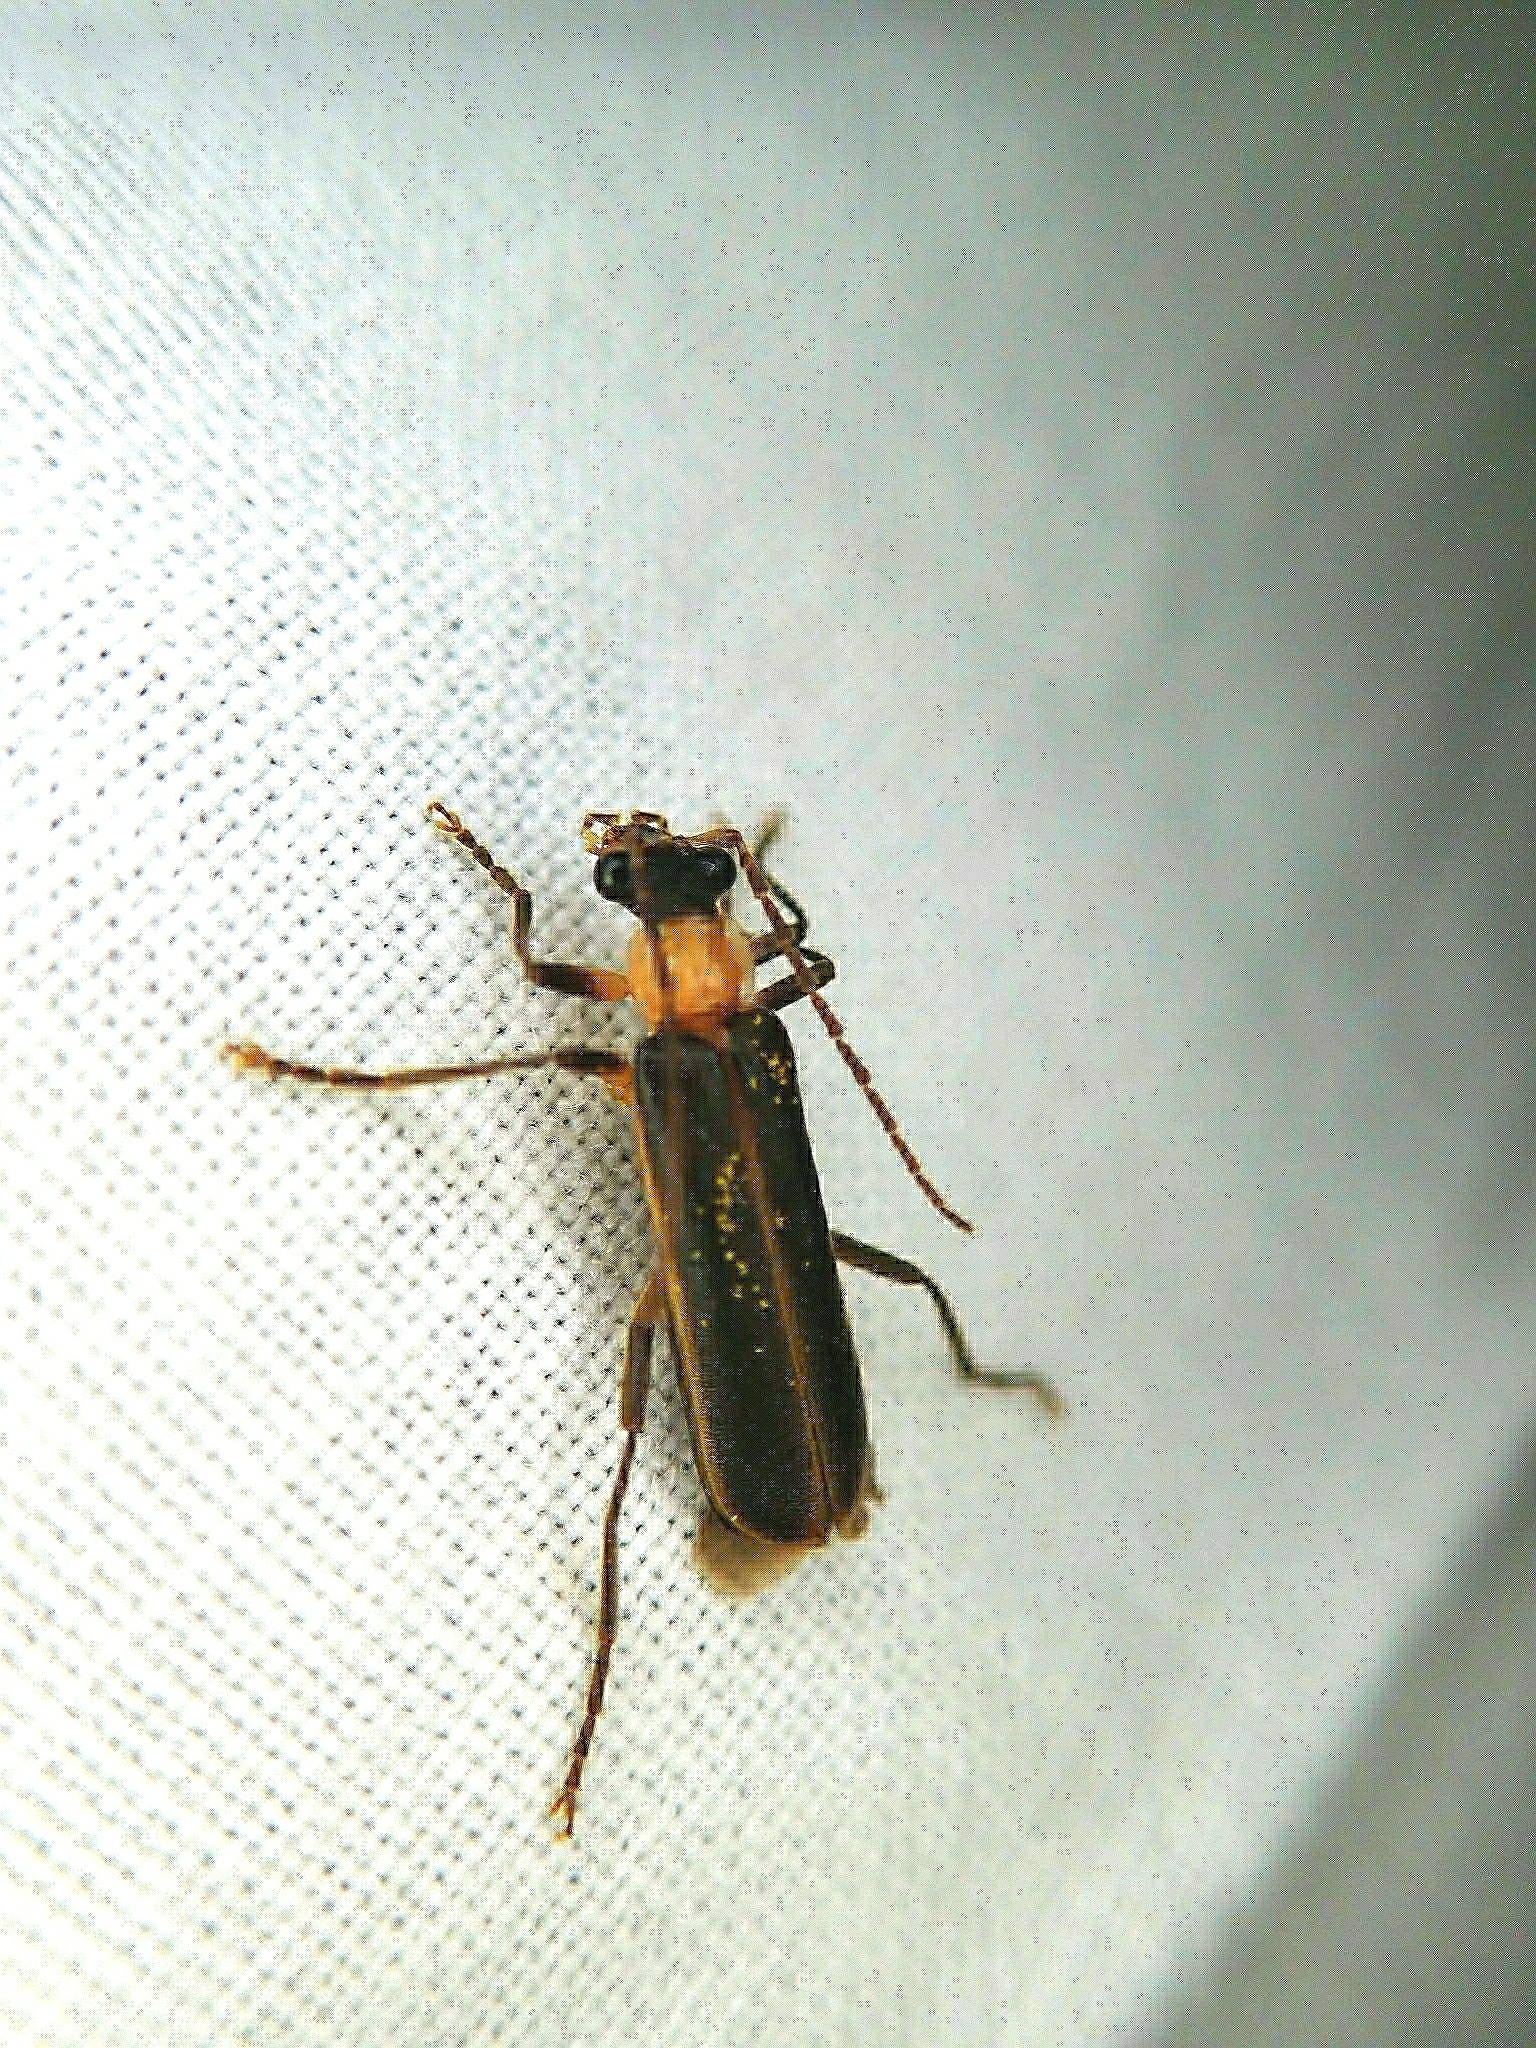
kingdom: Animalia
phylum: Arthropoda
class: Insecta
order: Coleoptera
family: Cantharidae
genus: Podabrus
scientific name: Podabrus flavicollis
